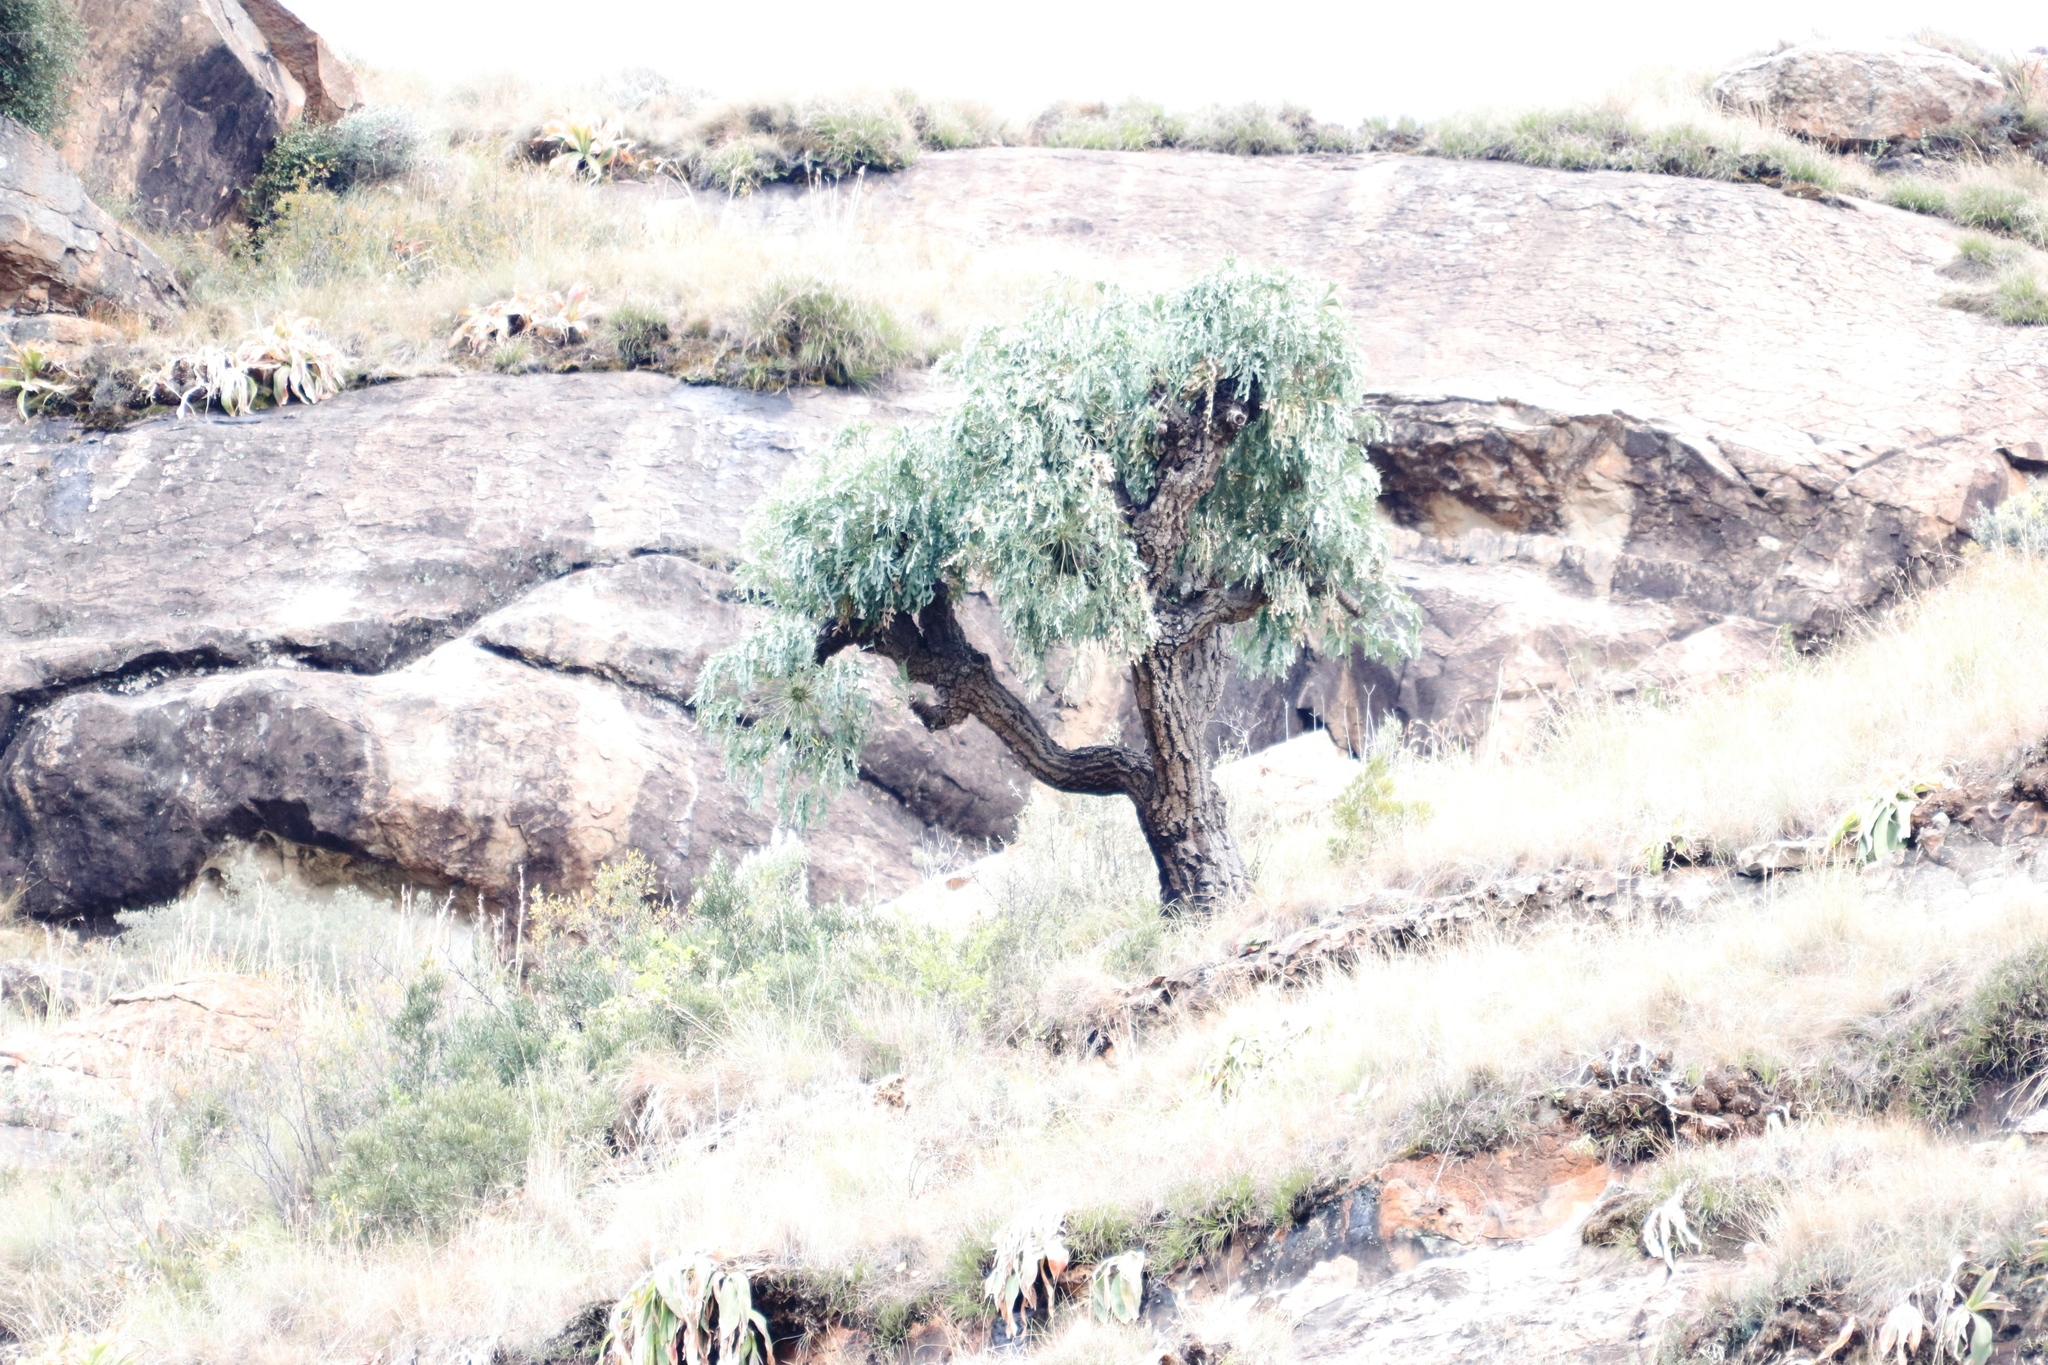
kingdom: Plantae
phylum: Tracheophyta
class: Magnoliopsida
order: Apiales
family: Araliaceae
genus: Cussonia
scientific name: Cussonia paniculata
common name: Cabbagetree
